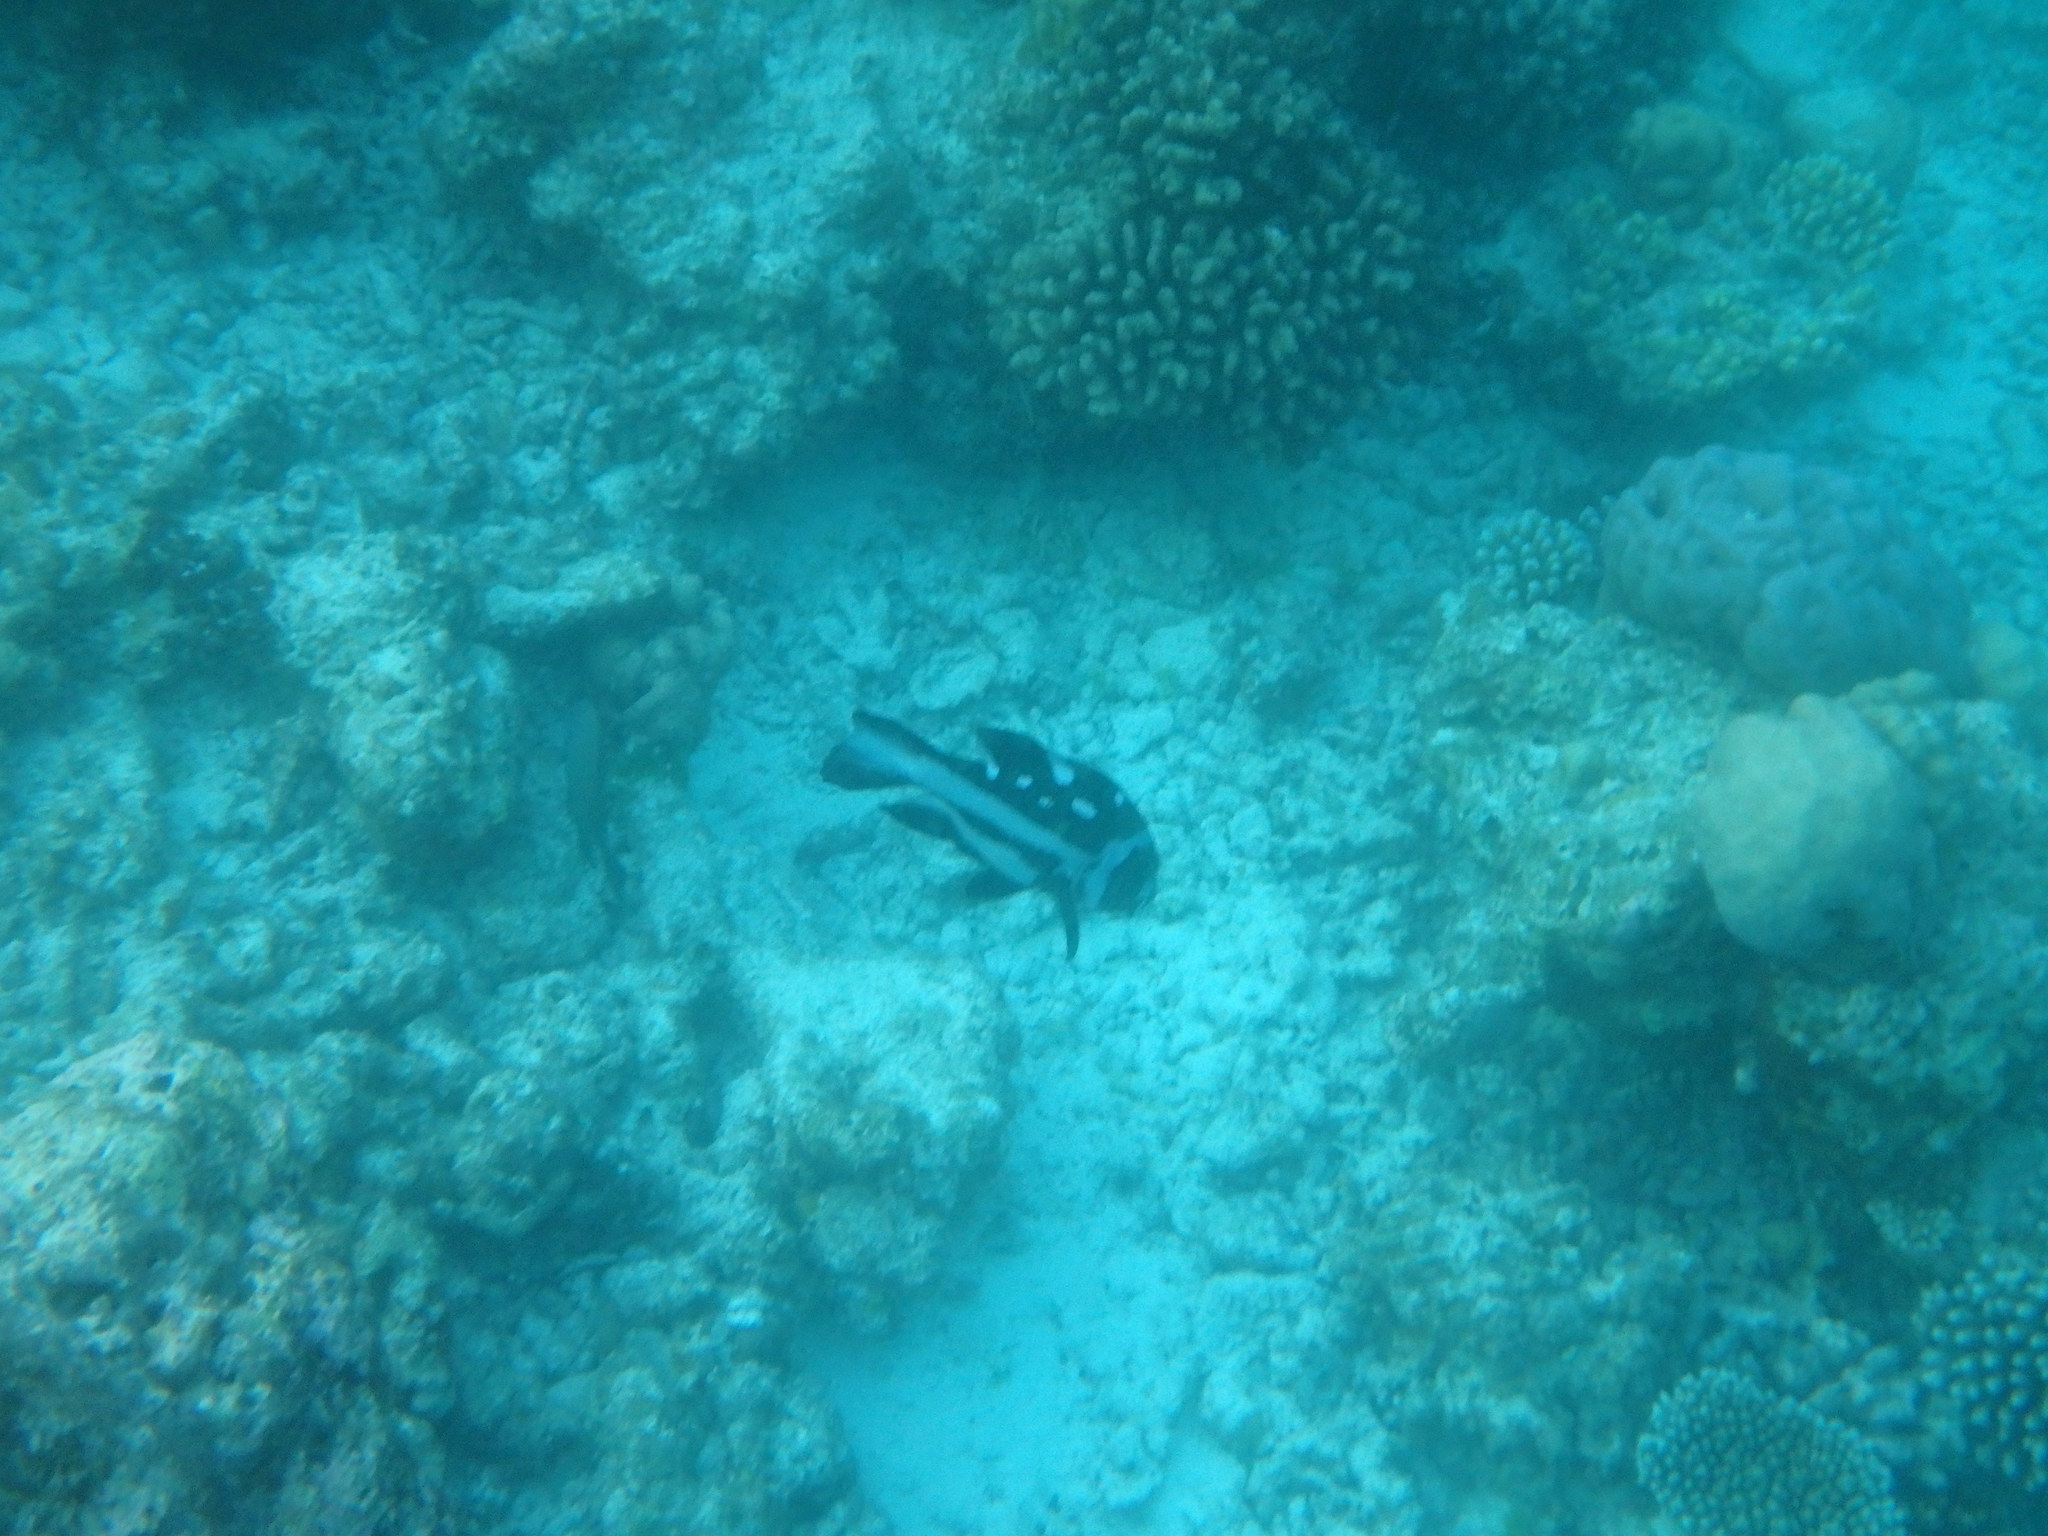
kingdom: Animalia
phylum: Chordata
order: Perciformes
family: Lutjanidae
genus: Macolor
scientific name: Macolor niger
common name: Black snapper
